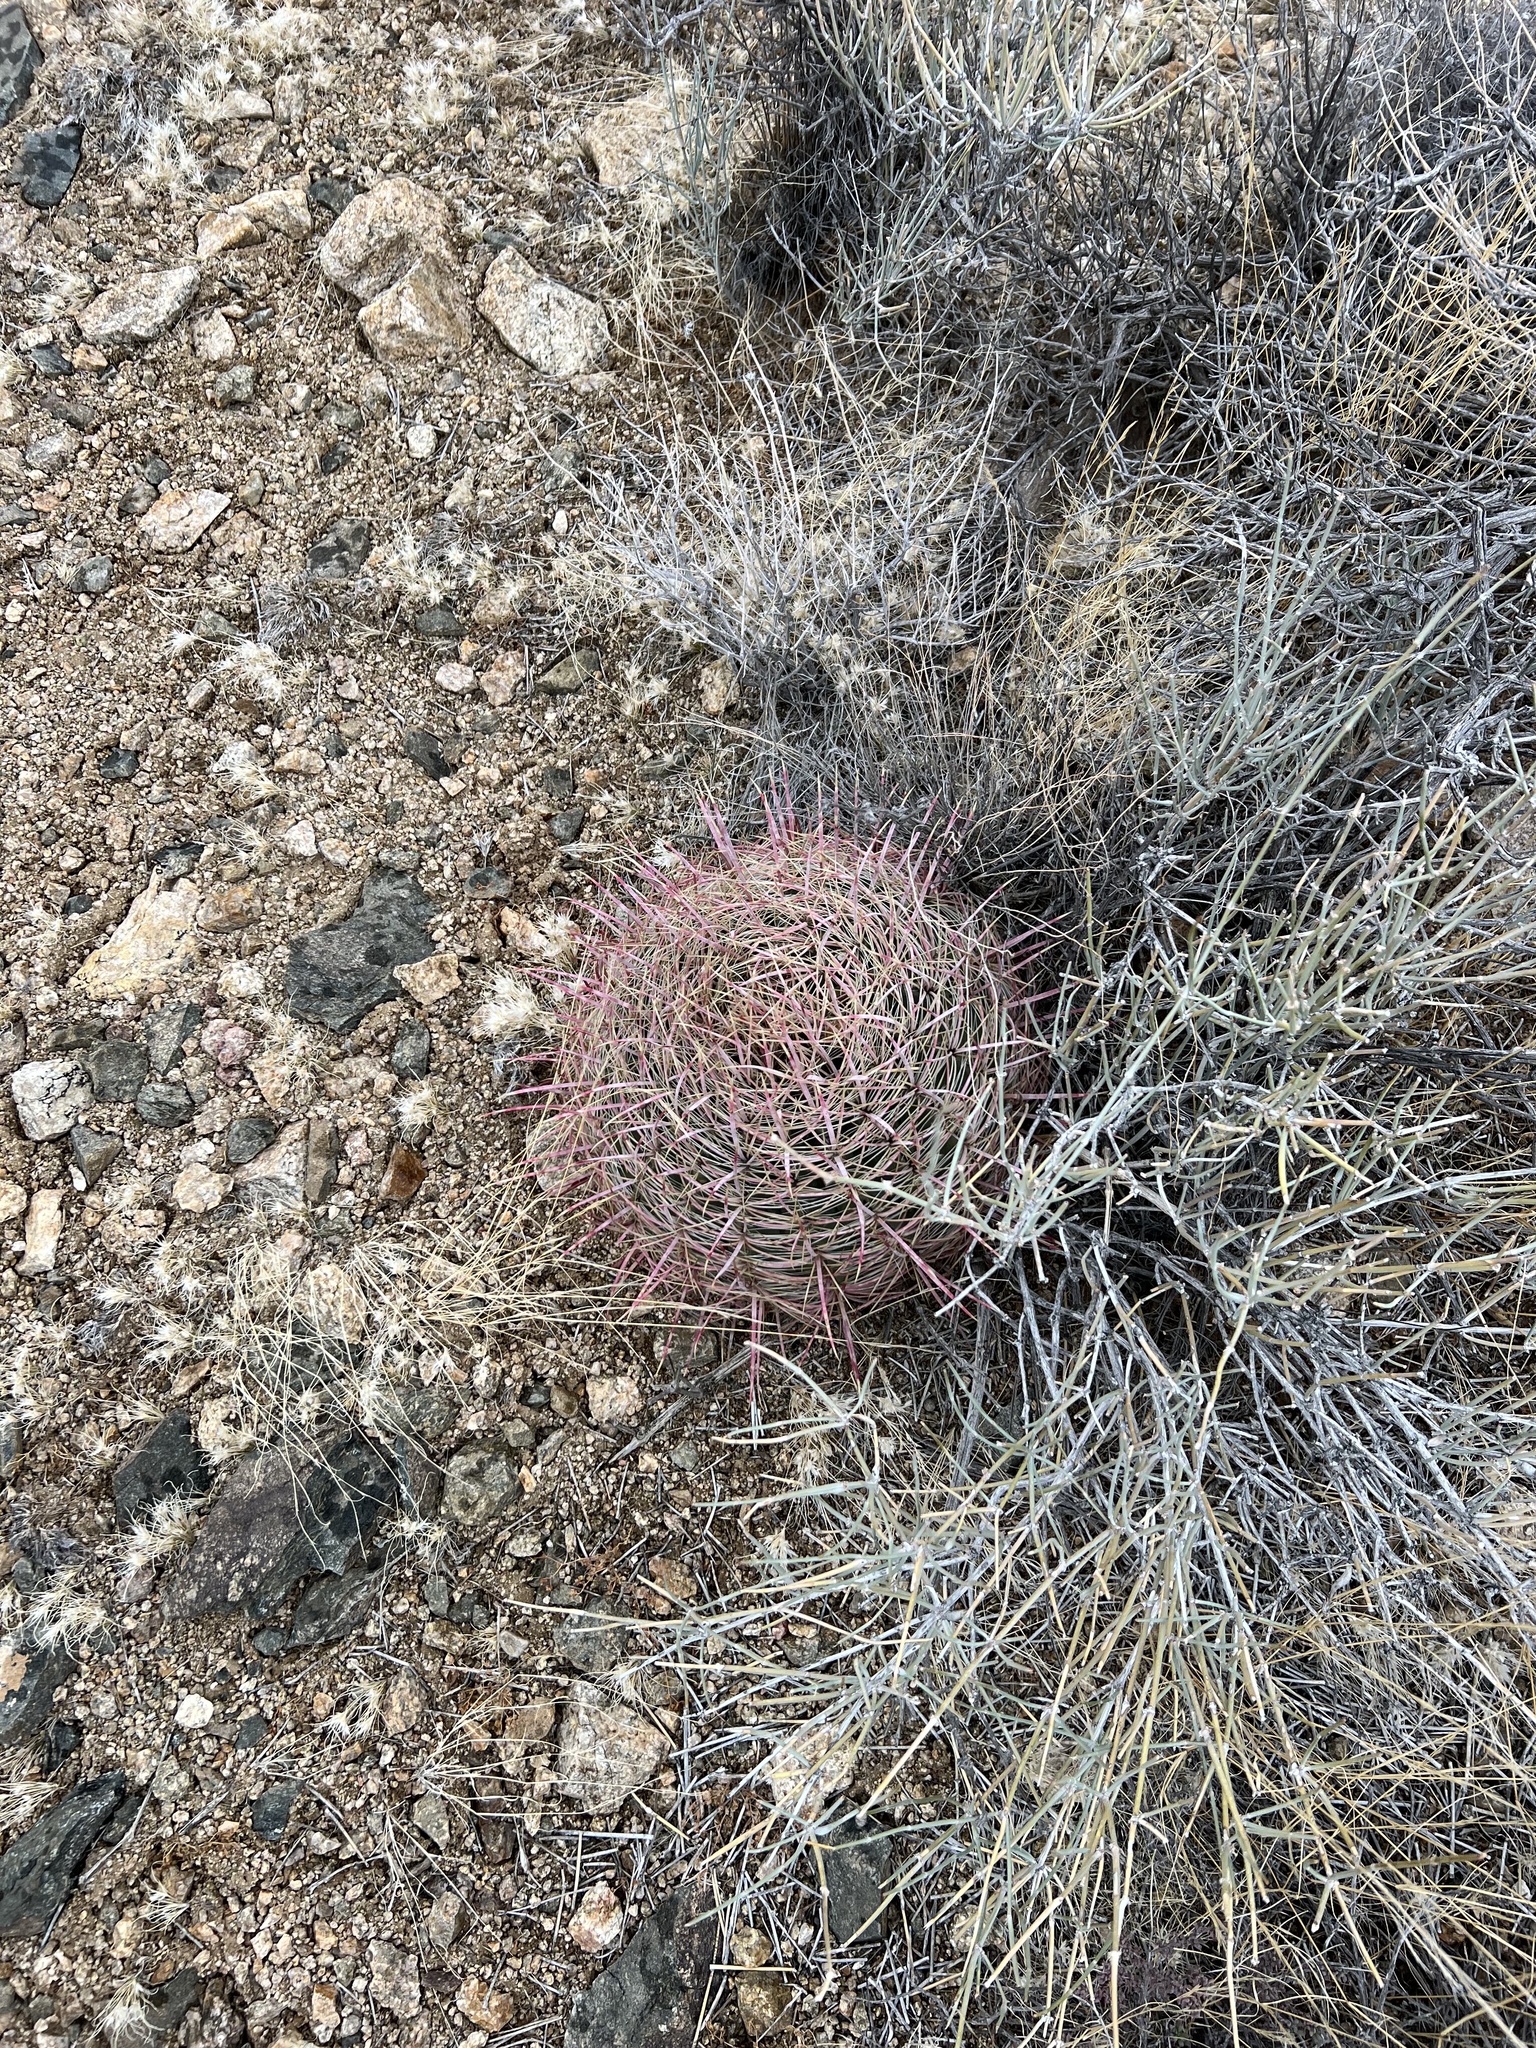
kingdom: Plantae
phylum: Tracheophyta
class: Magnoliopsida
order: Caryophyllales
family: Cactaceae
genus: Ferocactus
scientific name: Ferocactus cylindraceus
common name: California barrel cactus
